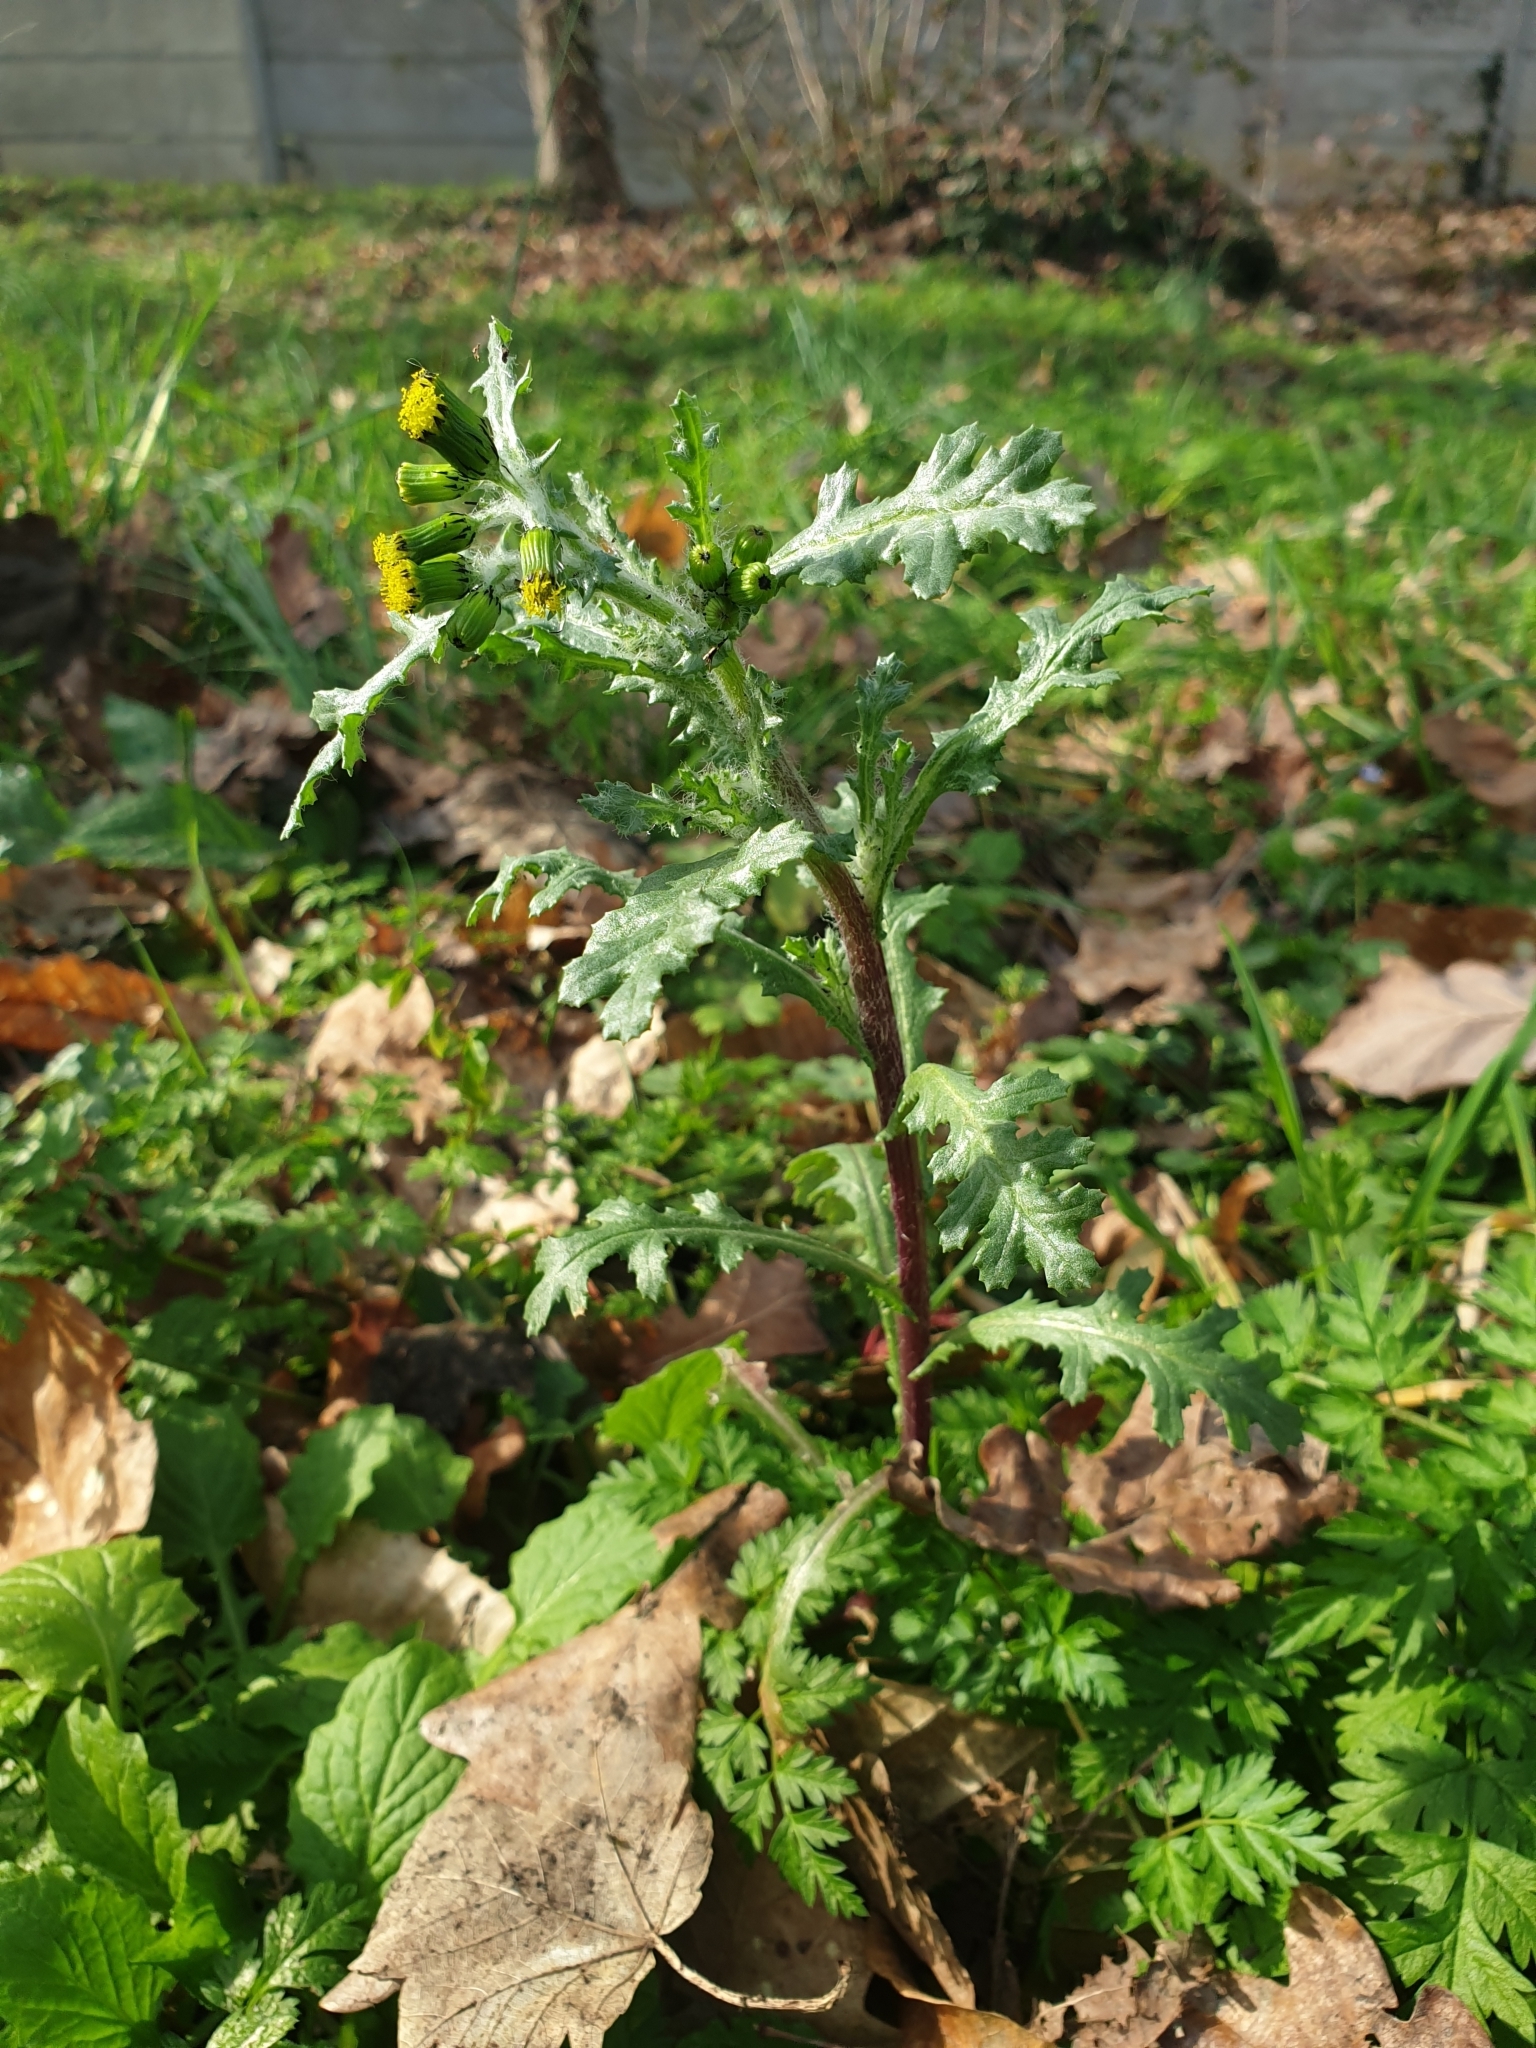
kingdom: Plantae
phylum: Tracheophyta
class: Magnoliopsida
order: Asterales
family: Asteraceae
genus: Senecio
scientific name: Senecio vulgaris
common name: Old-man-in-the-spring
